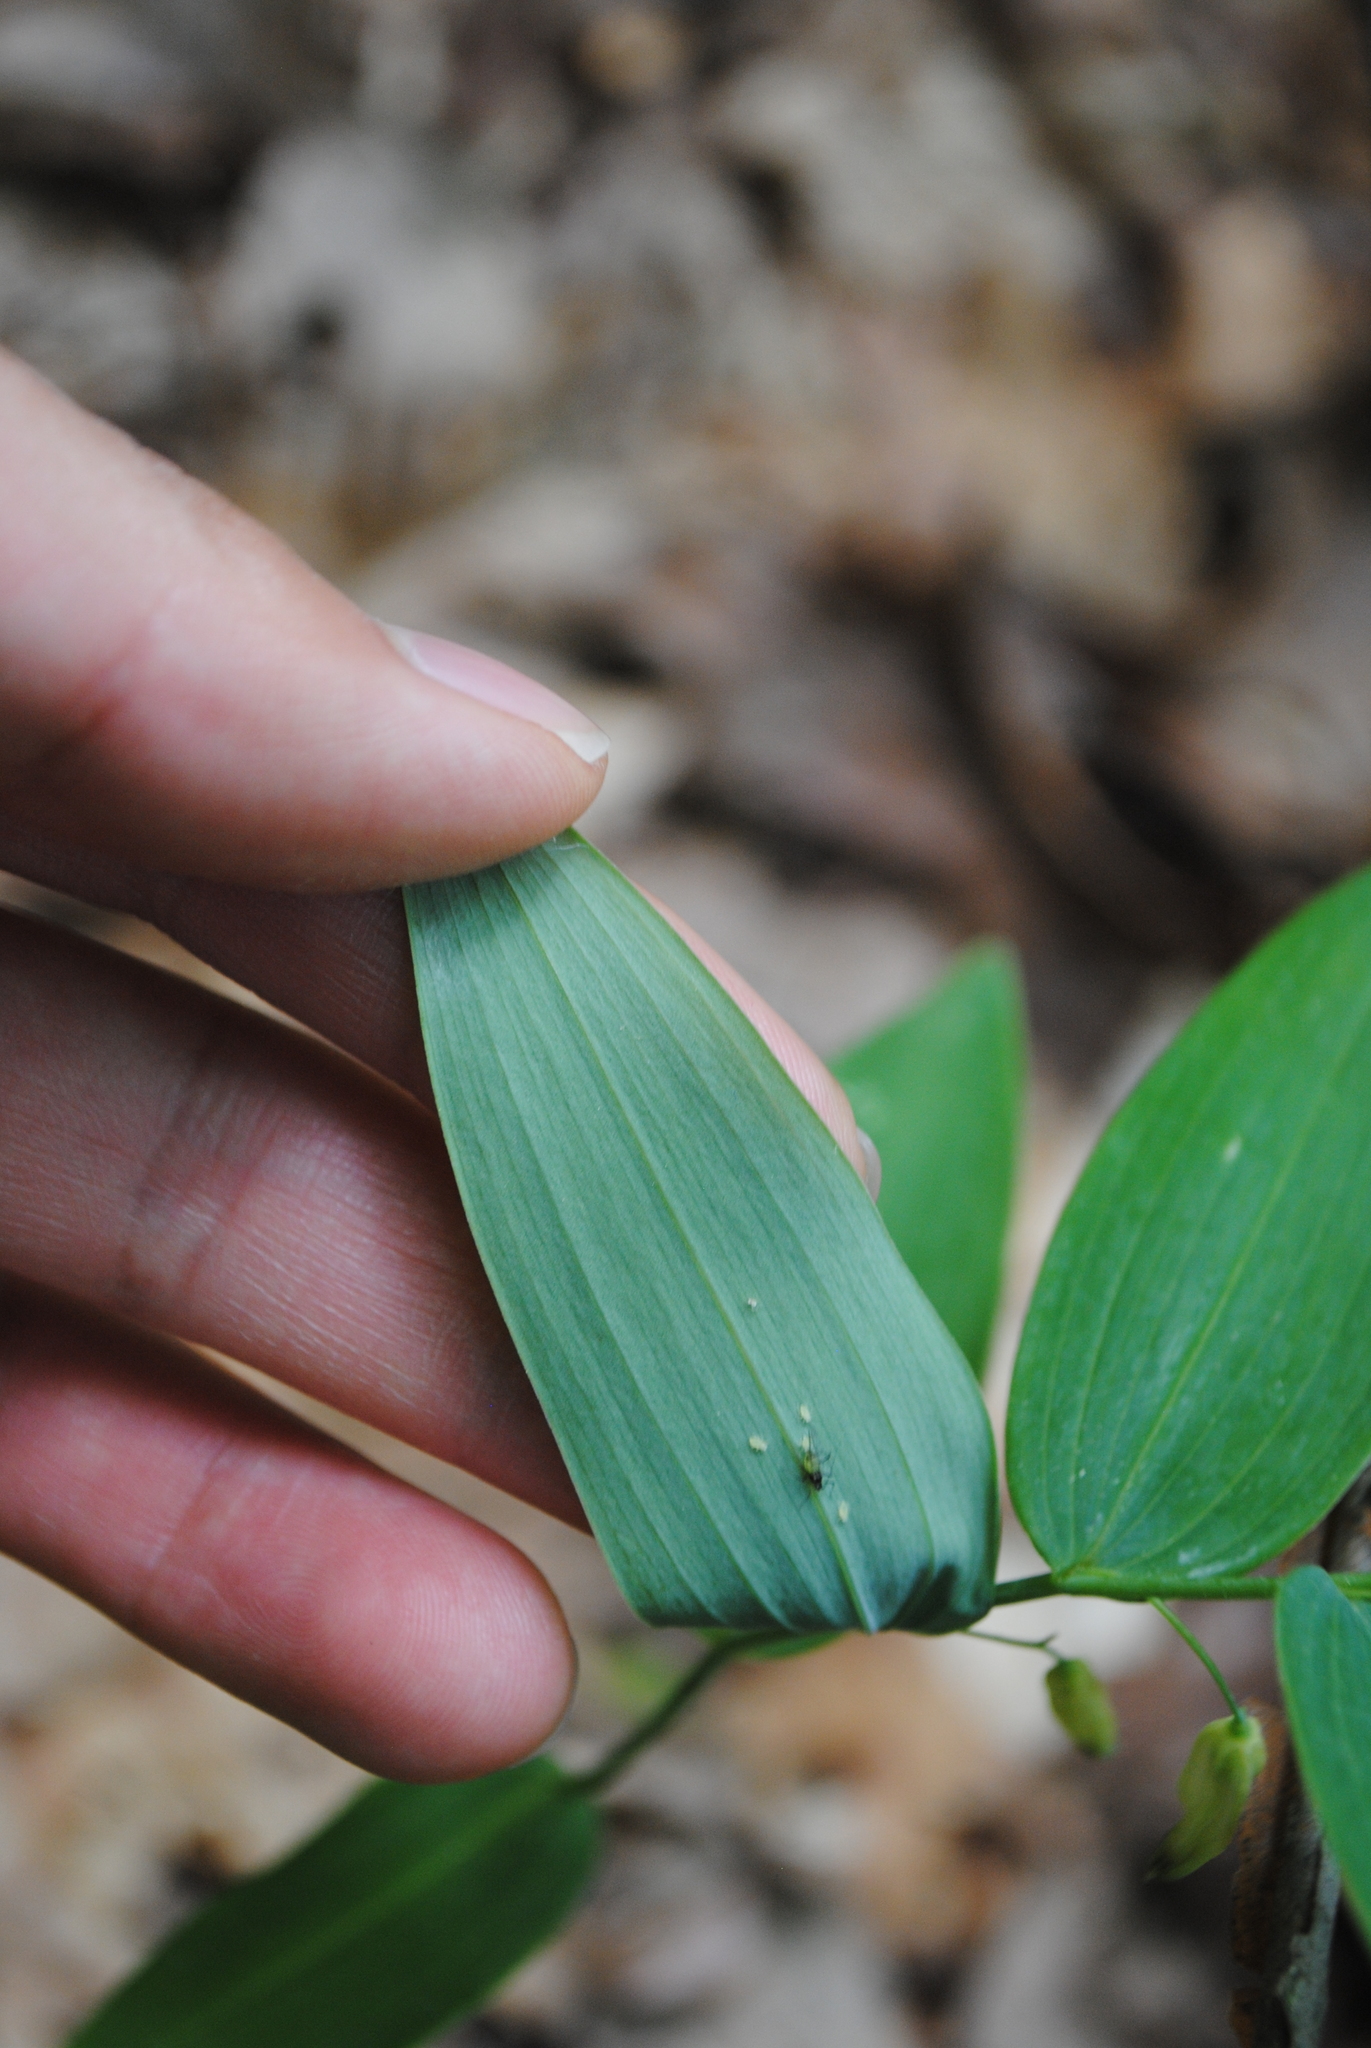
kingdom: Plantae
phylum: Tracheophyta
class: Liliopsida
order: Asparagales
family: Asparagaceae
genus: Polygonatum
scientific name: Polygonatum biflorum
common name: American solomon's-seal
